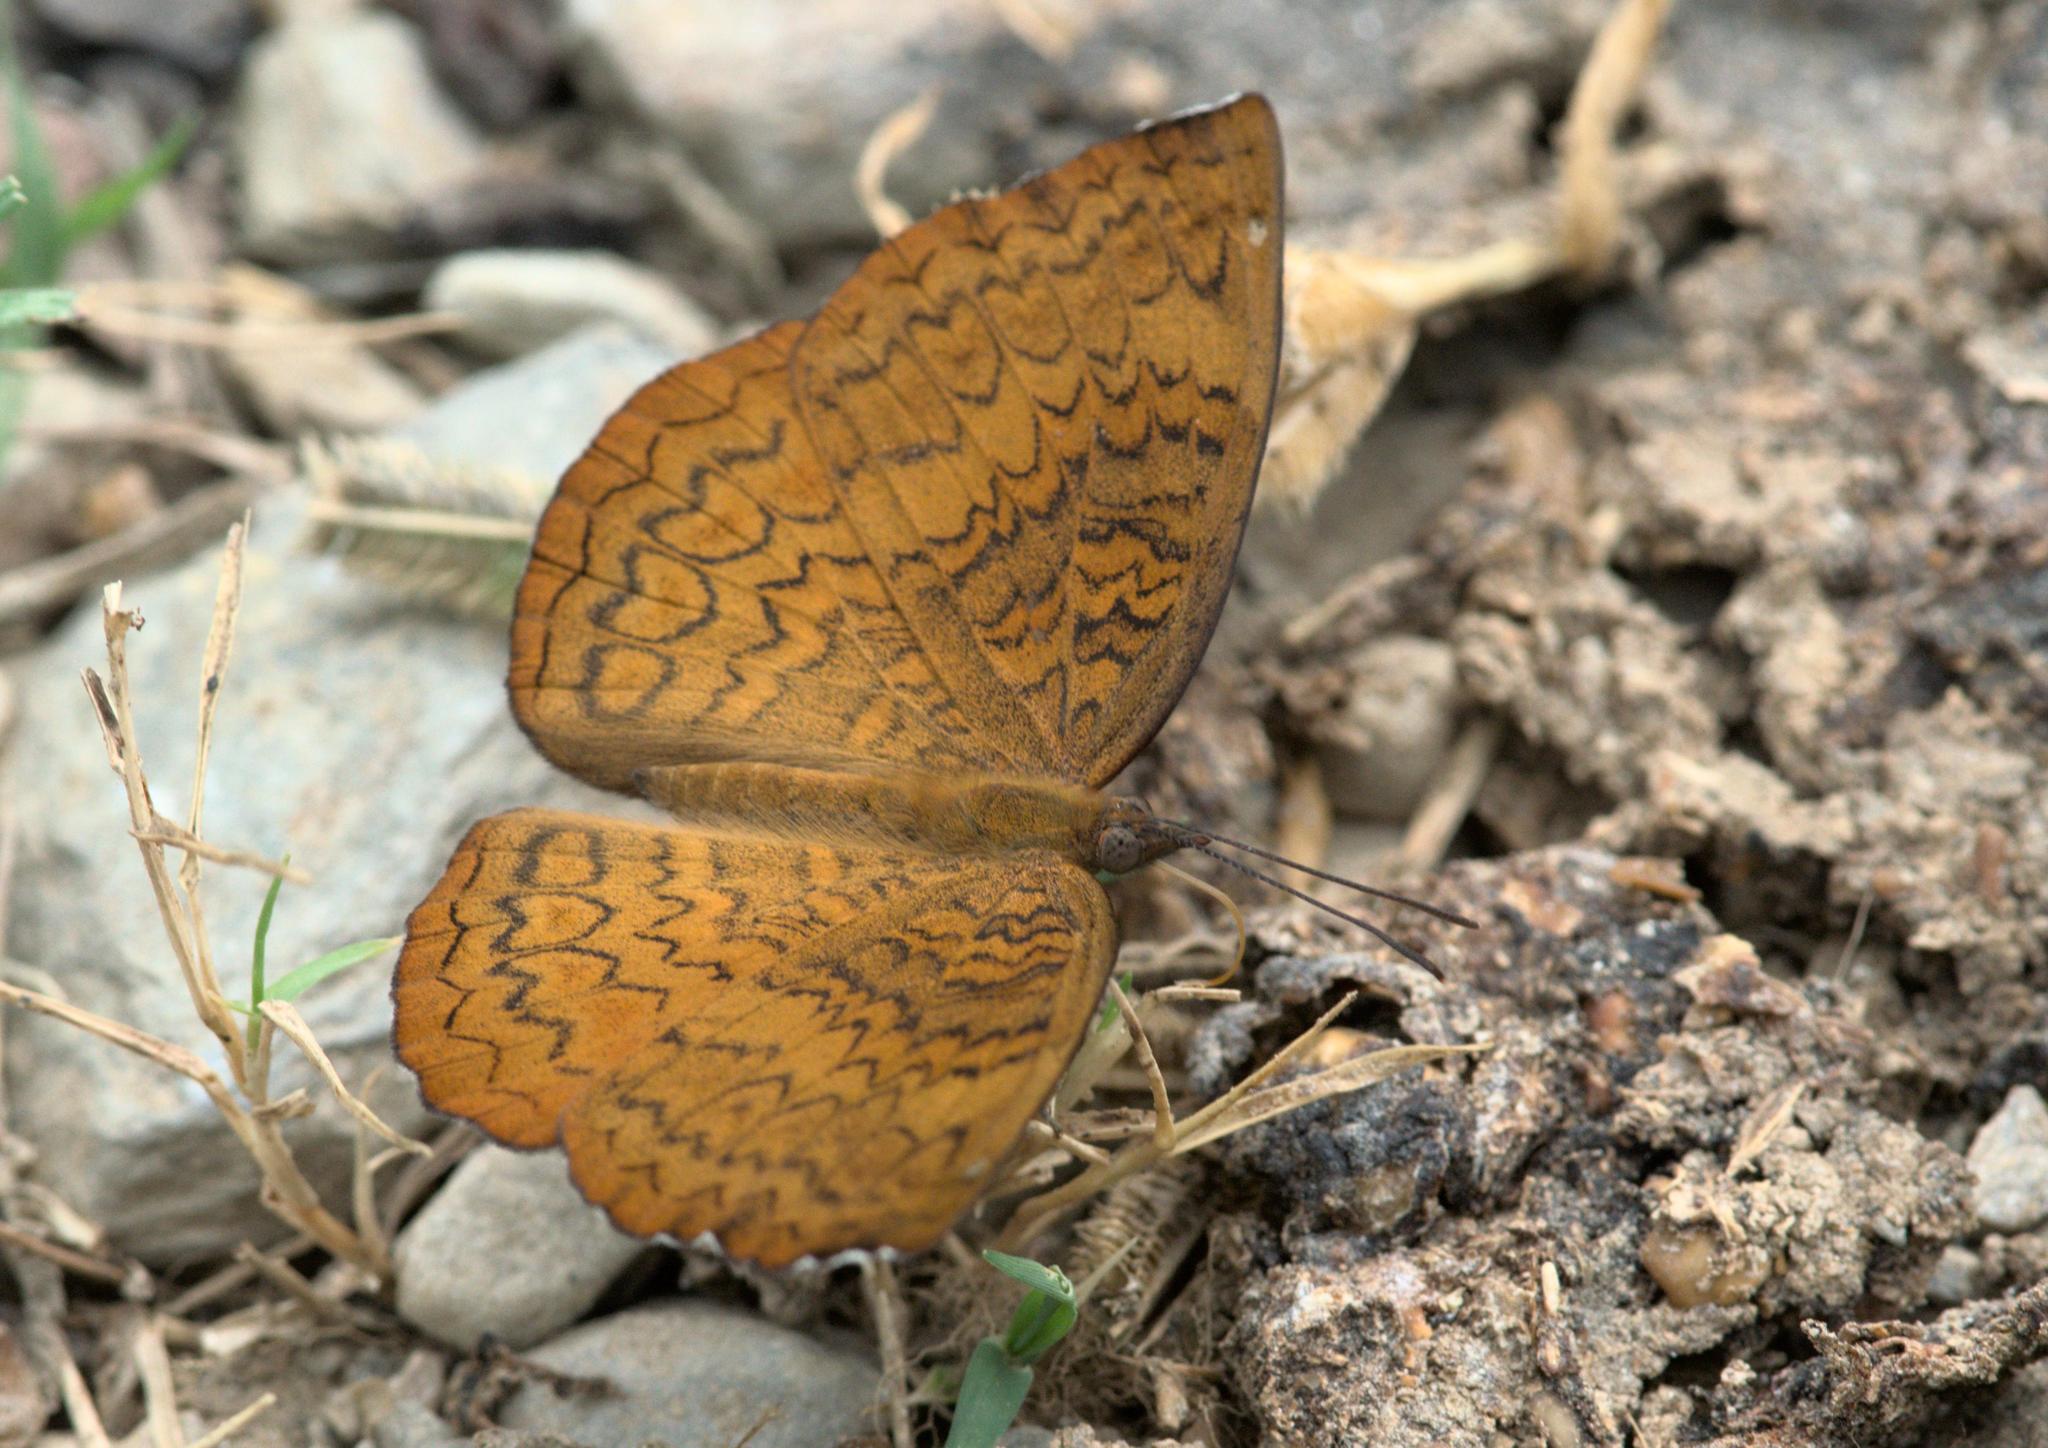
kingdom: Animalia
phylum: Arthropoda
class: Insecta
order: Lepidoptera
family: Nymphalidae
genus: Ariadne
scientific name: Ariadne merione
